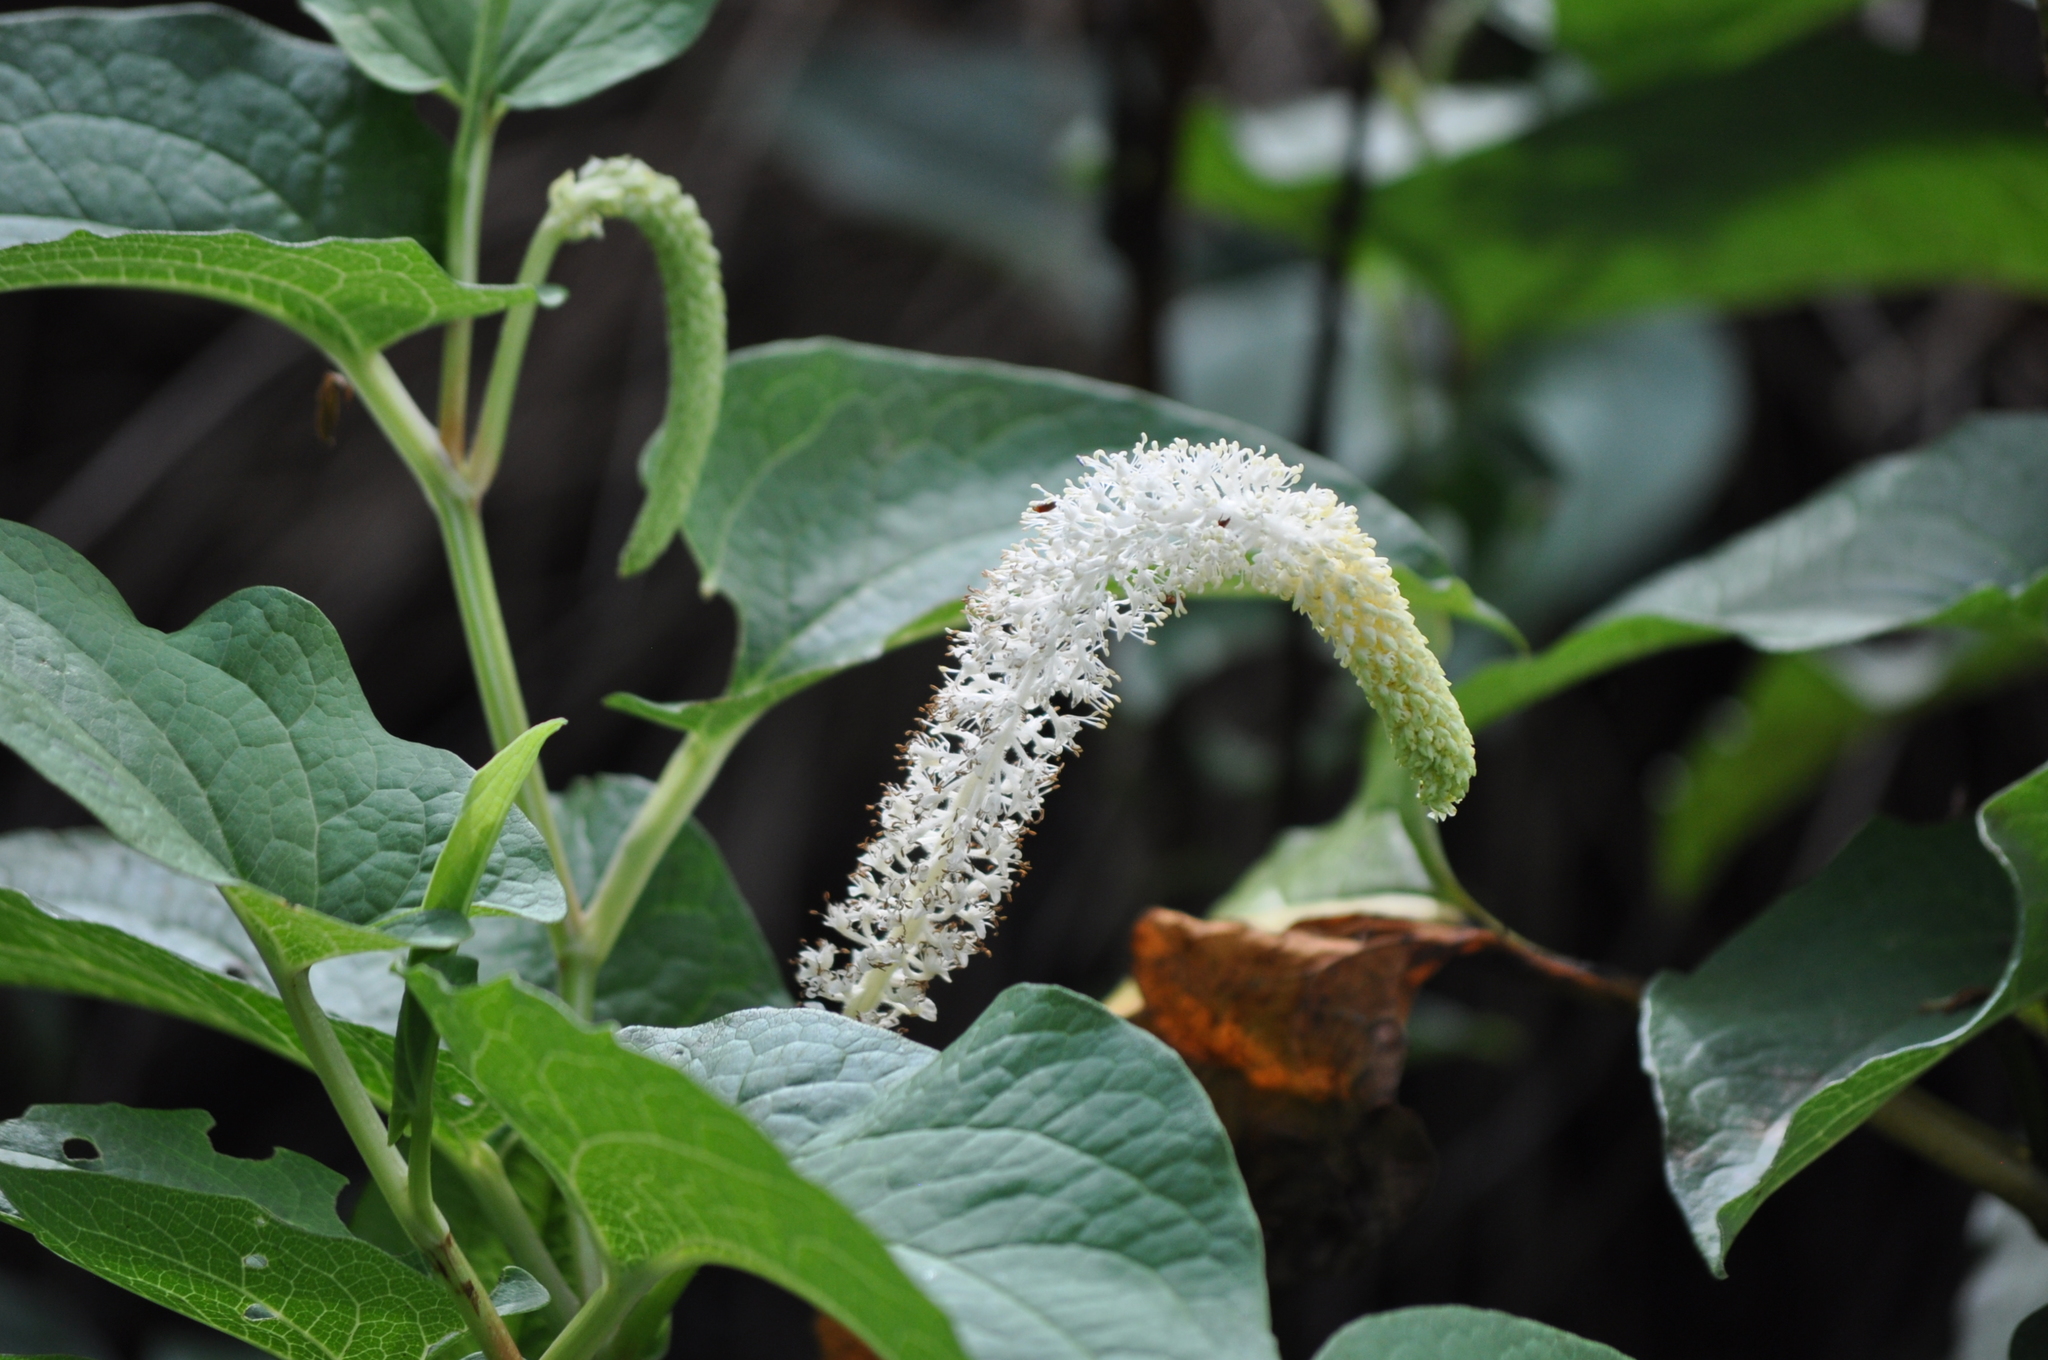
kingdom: Plantae
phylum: Tracheophyta
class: Magnoliopsida
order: Piperales
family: Saururaceae
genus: Saururus
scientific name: Saururus cernuus
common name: Lizard's-tail
